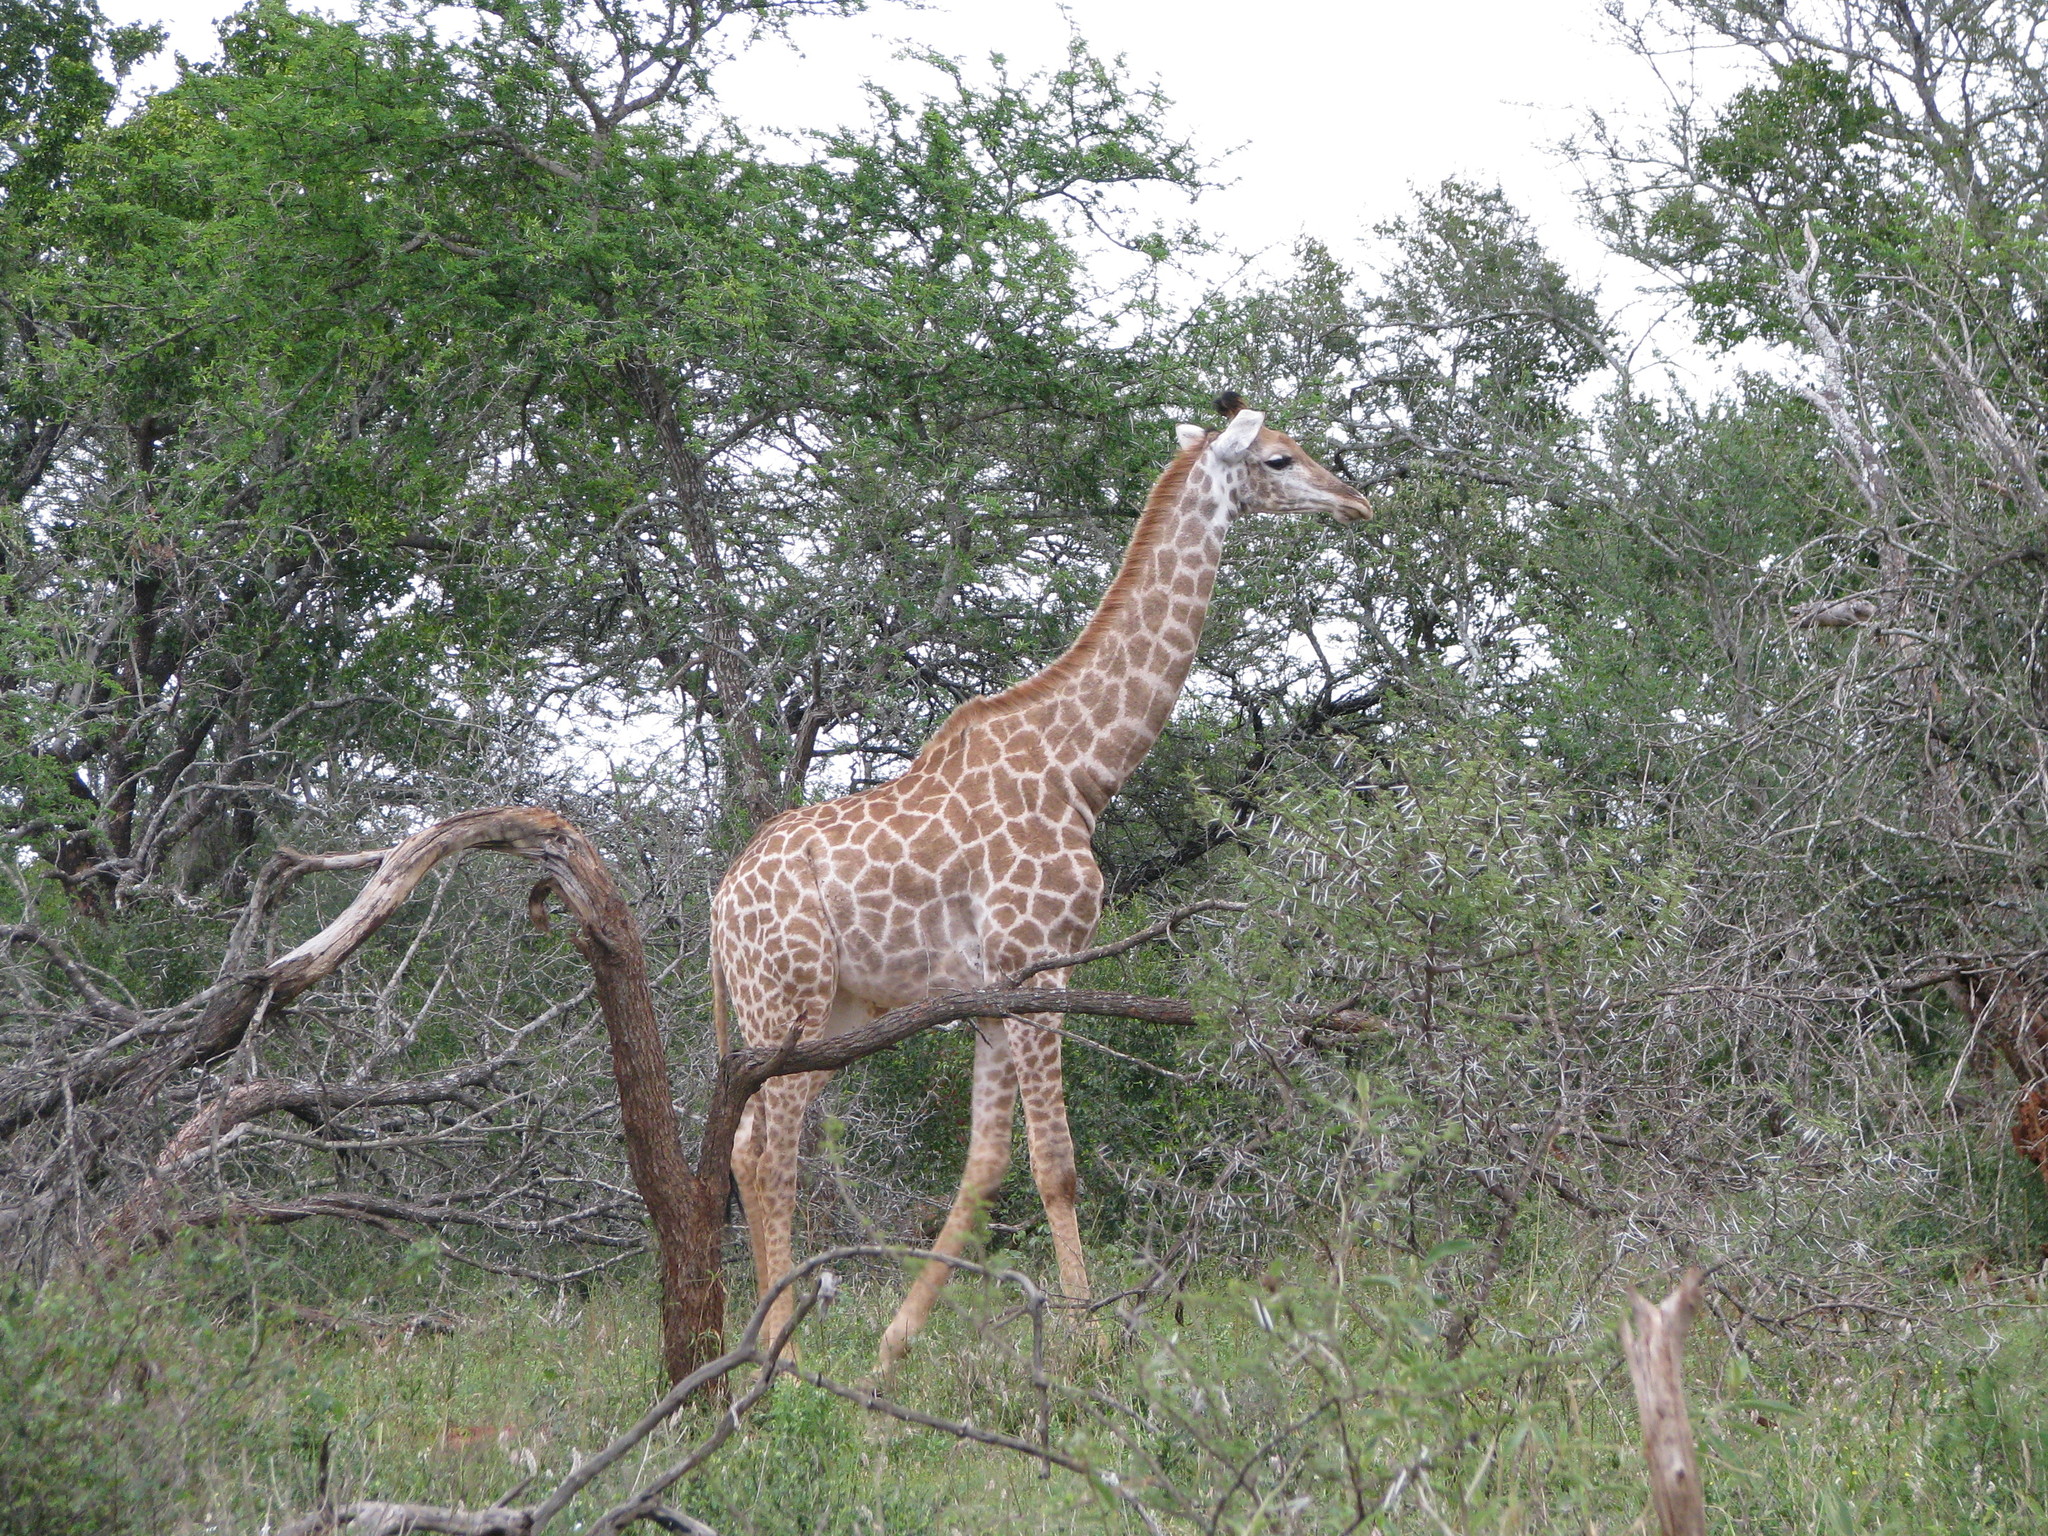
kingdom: Animalia
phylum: Chordata
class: Mammalia
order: Artiodactyla
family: Giraffidae
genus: Giraffa
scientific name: Giraffa giraffa
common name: Southern giraffe
